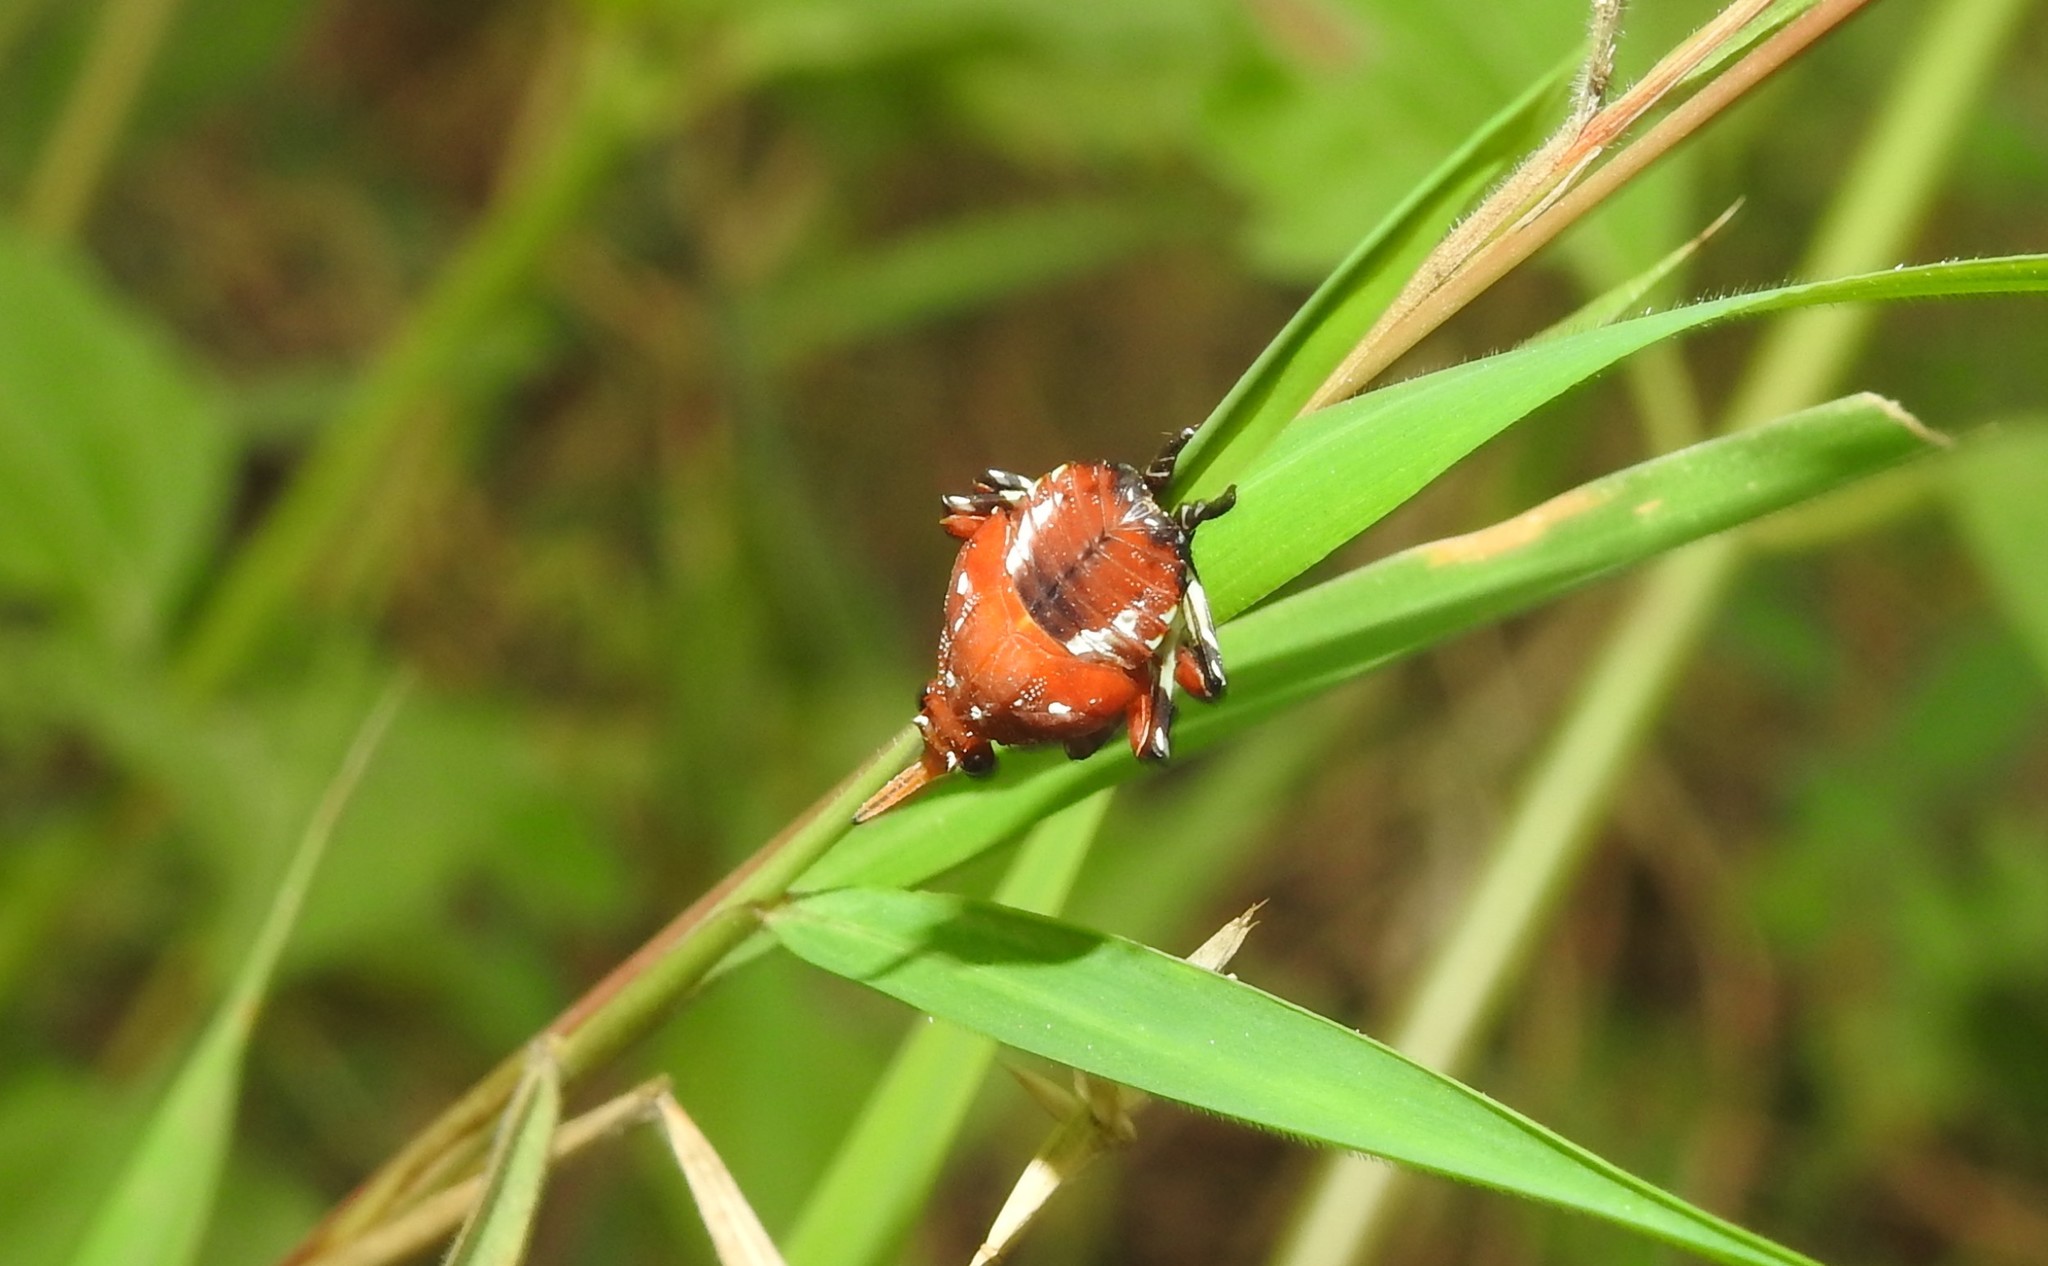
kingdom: Animalia
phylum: Arthropoda
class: Insecta
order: Hemiptera
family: Fulgoridae
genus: Kalidasa
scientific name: Kalidasa lanata
